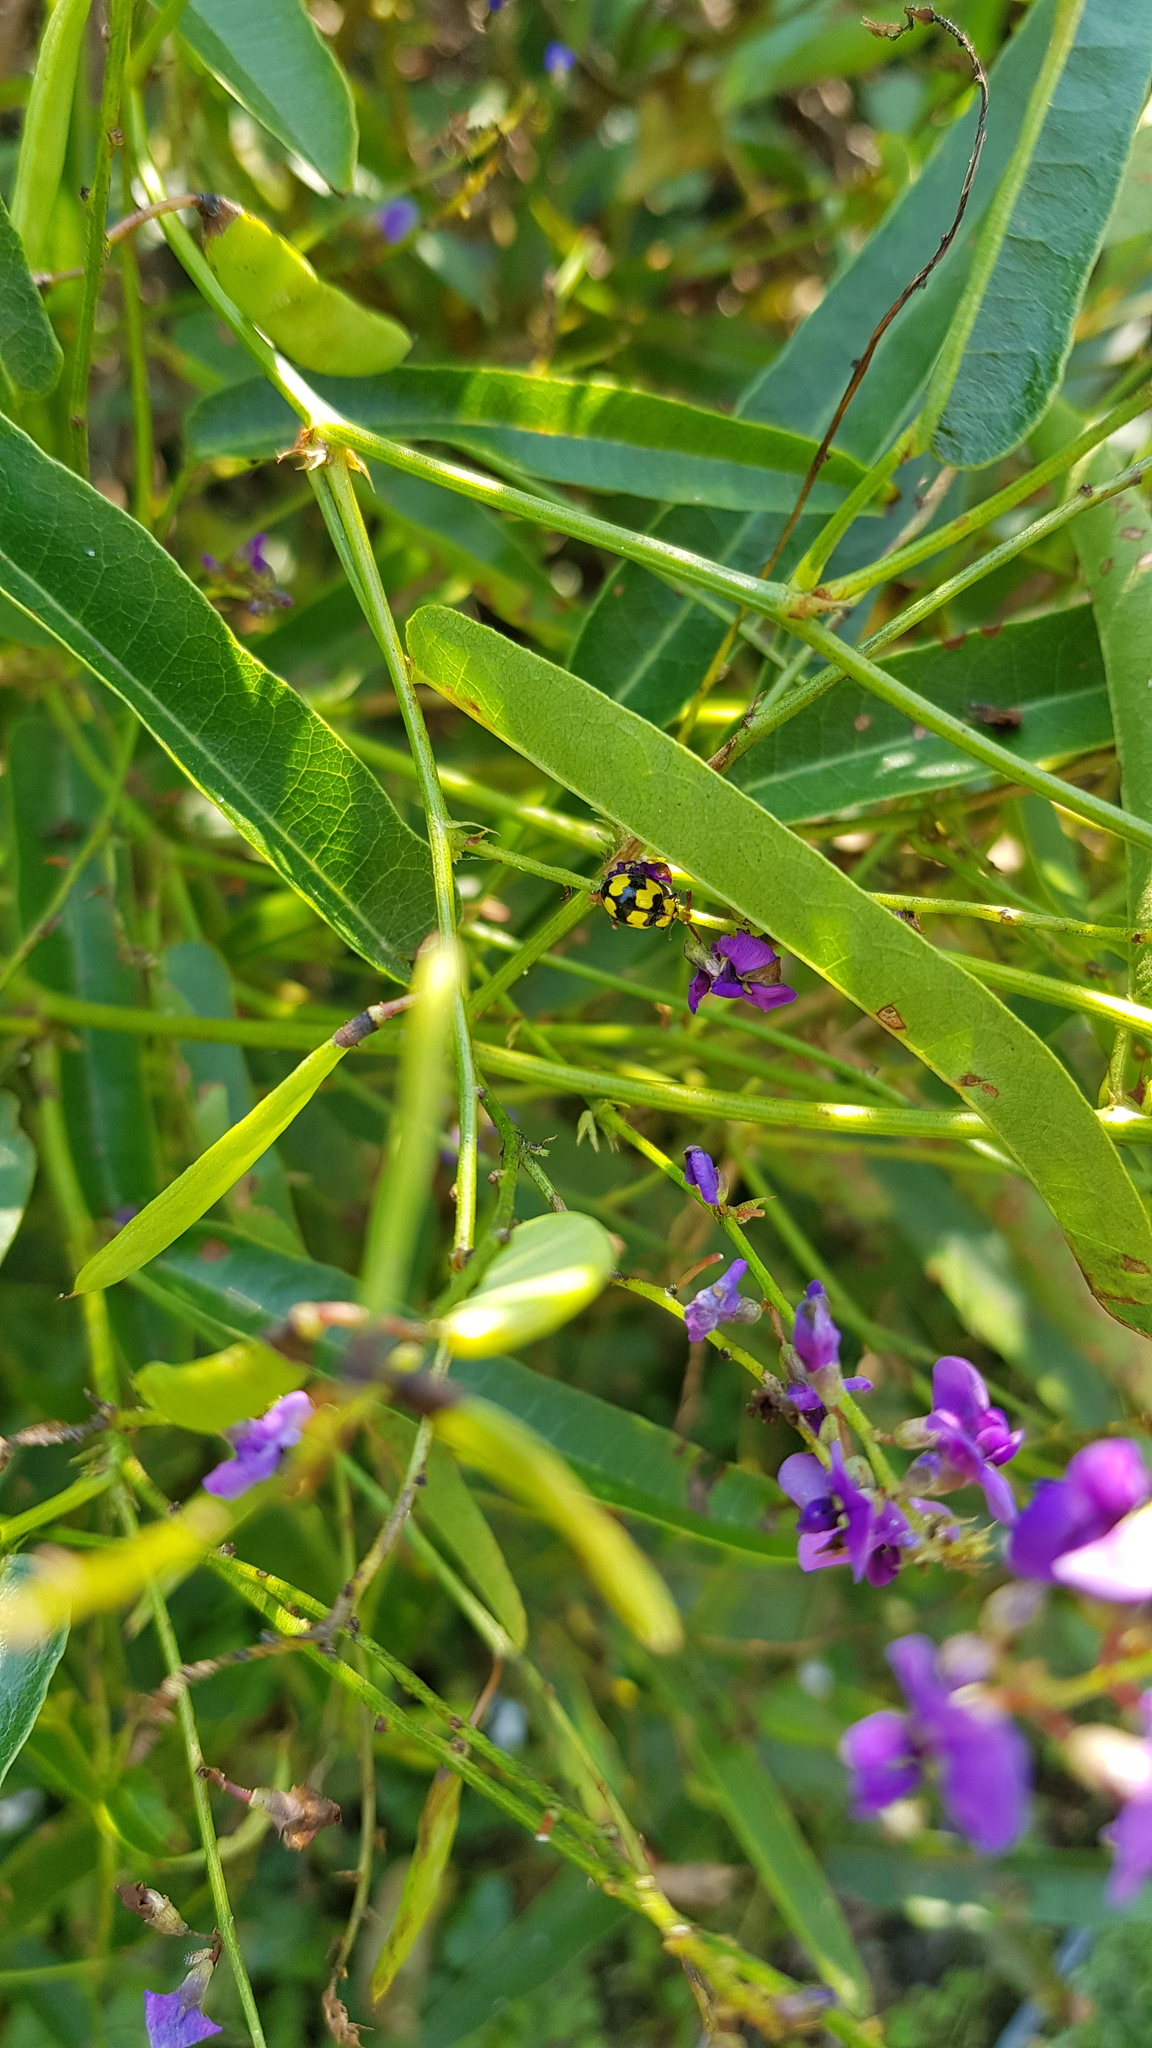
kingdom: Animalia
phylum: Arthropoda
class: Insecta
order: Coleoptera
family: Coccinellidae
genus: Illeis
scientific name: Illeis galbula
